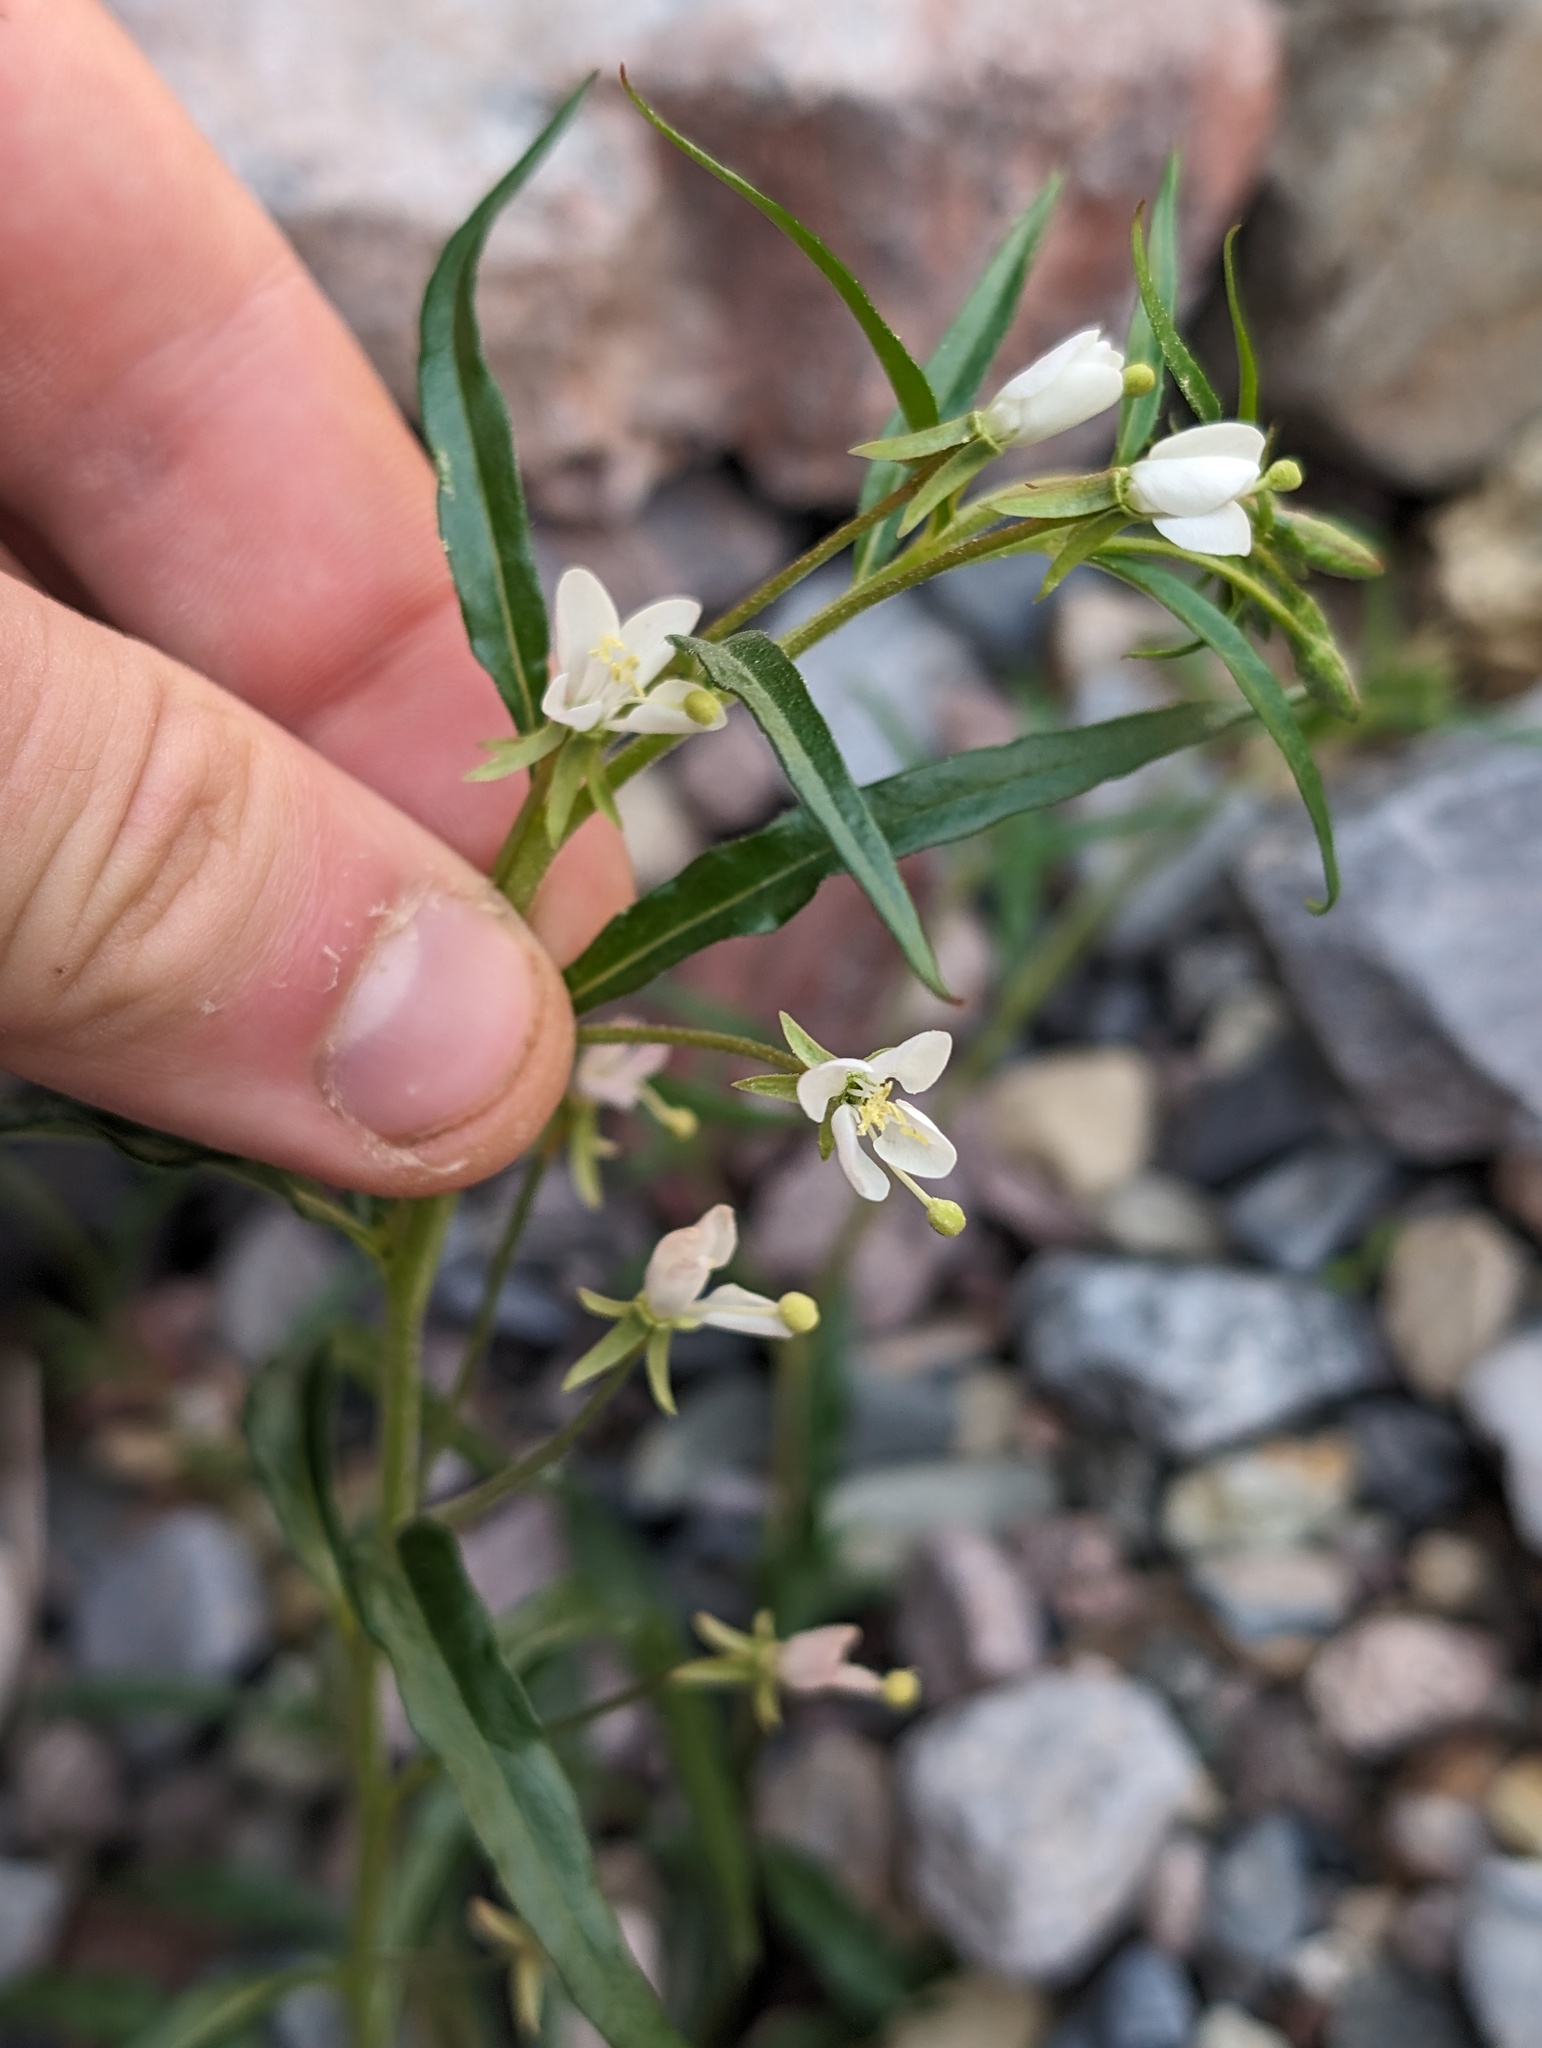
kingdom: Plantae
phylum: Tracheophyta
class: Magnoliopsida
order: Myrtales
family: Onagraceae
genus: Eremothera
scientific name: Eremothera refracta
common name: Narrowleaf suncup
